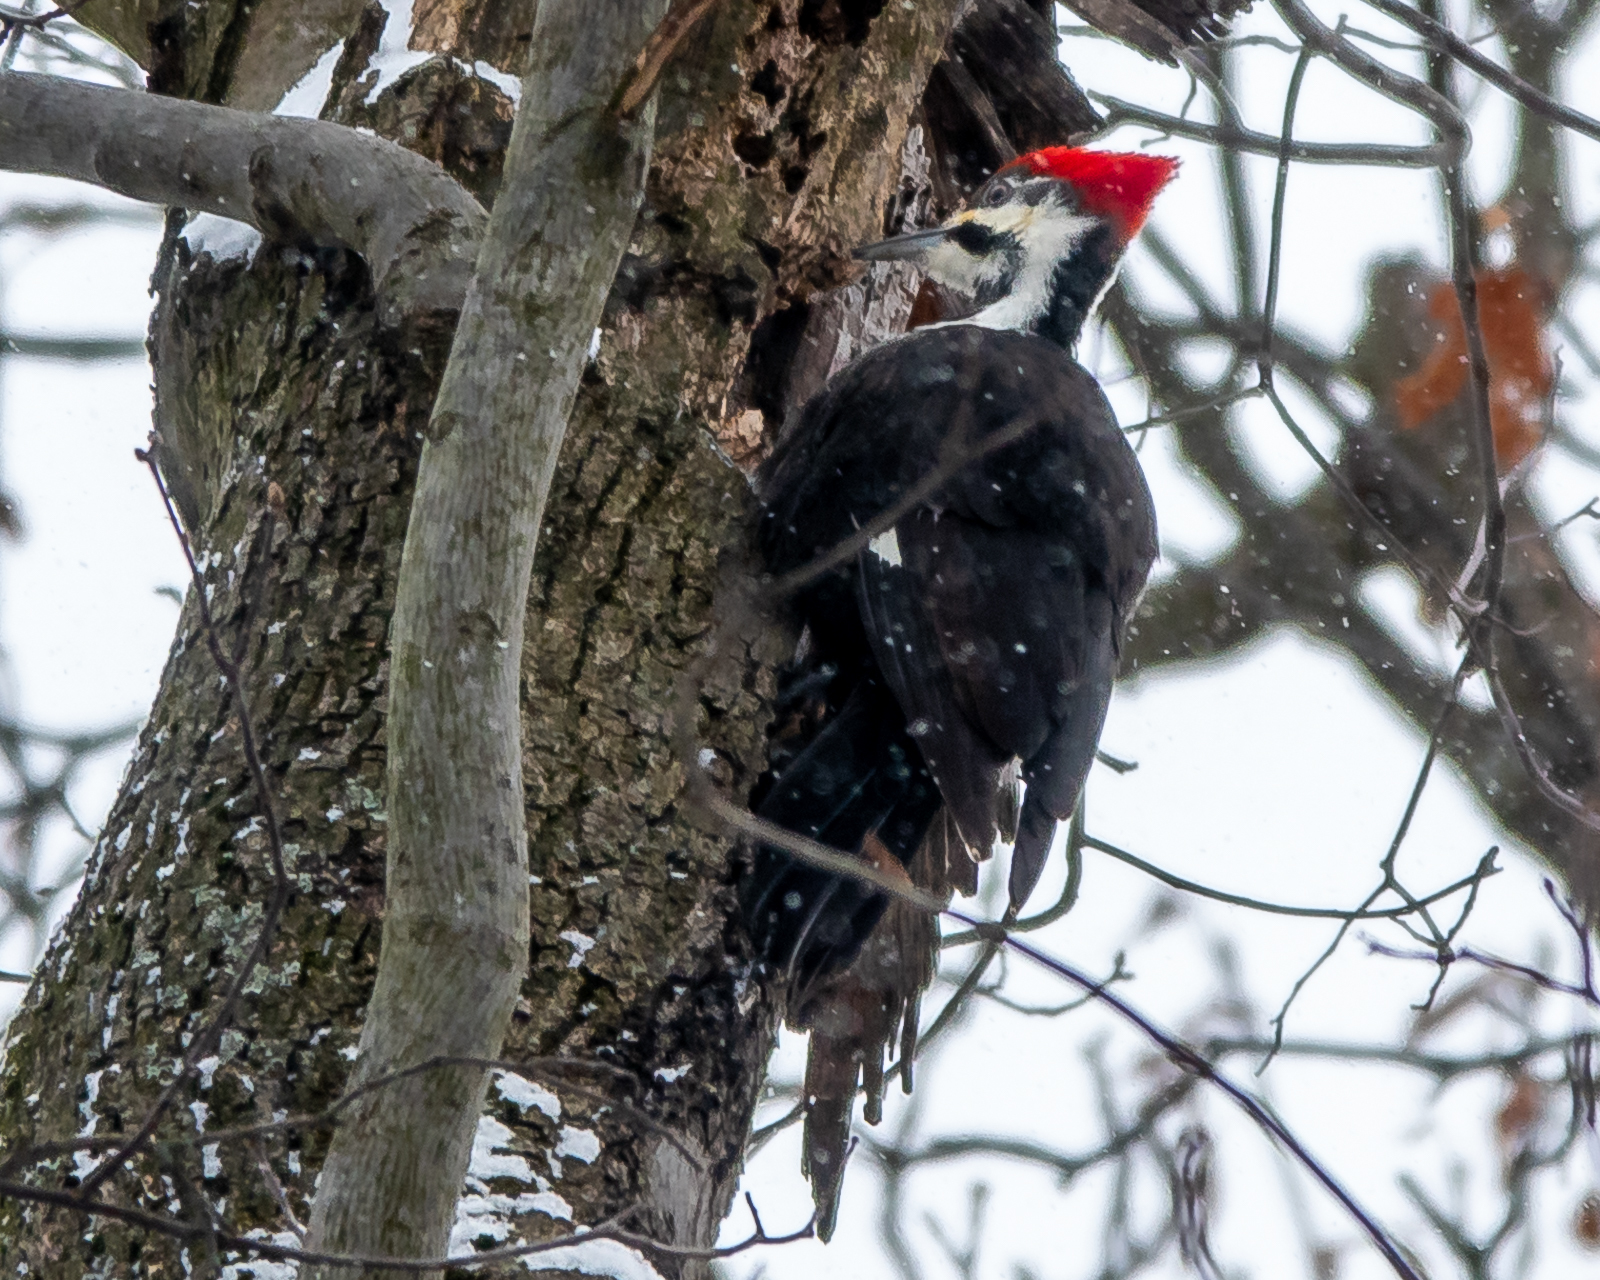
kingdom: Animalia
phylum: Chordata
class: Aves
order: Piciformes
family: Picidae
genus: Dryocopus
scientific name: Dryocopus pileatus
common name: Pileated woodpecker
